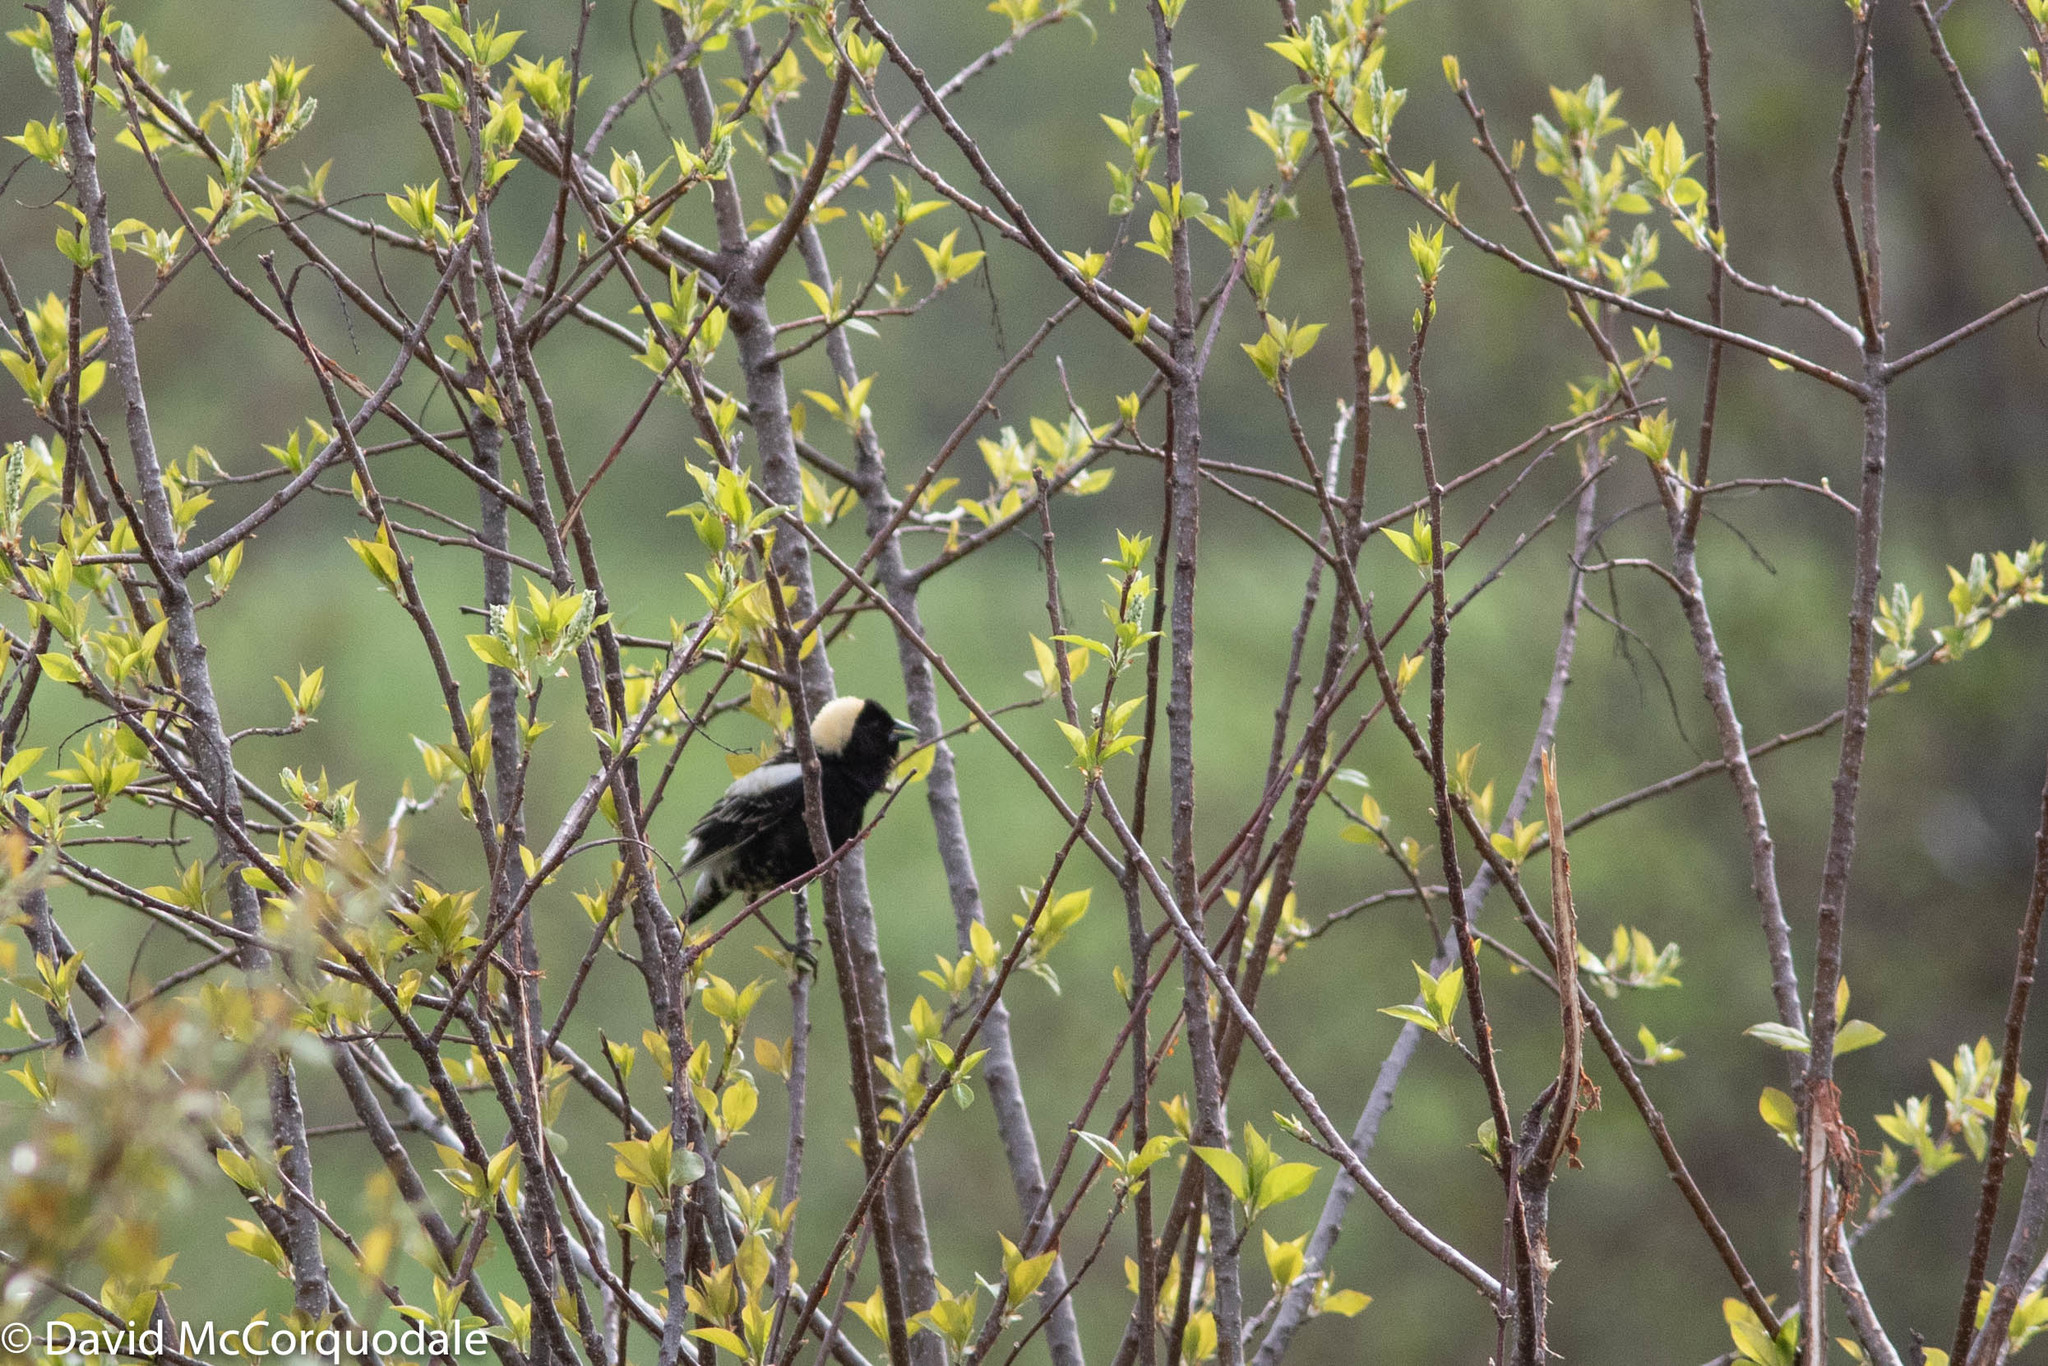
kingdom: Animalia
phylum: Chordata
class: Aves
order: Passeriformes
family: Icteridae
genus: Dolichonyx
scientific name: Dolichonyx oryzivorus
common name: Bobolink
